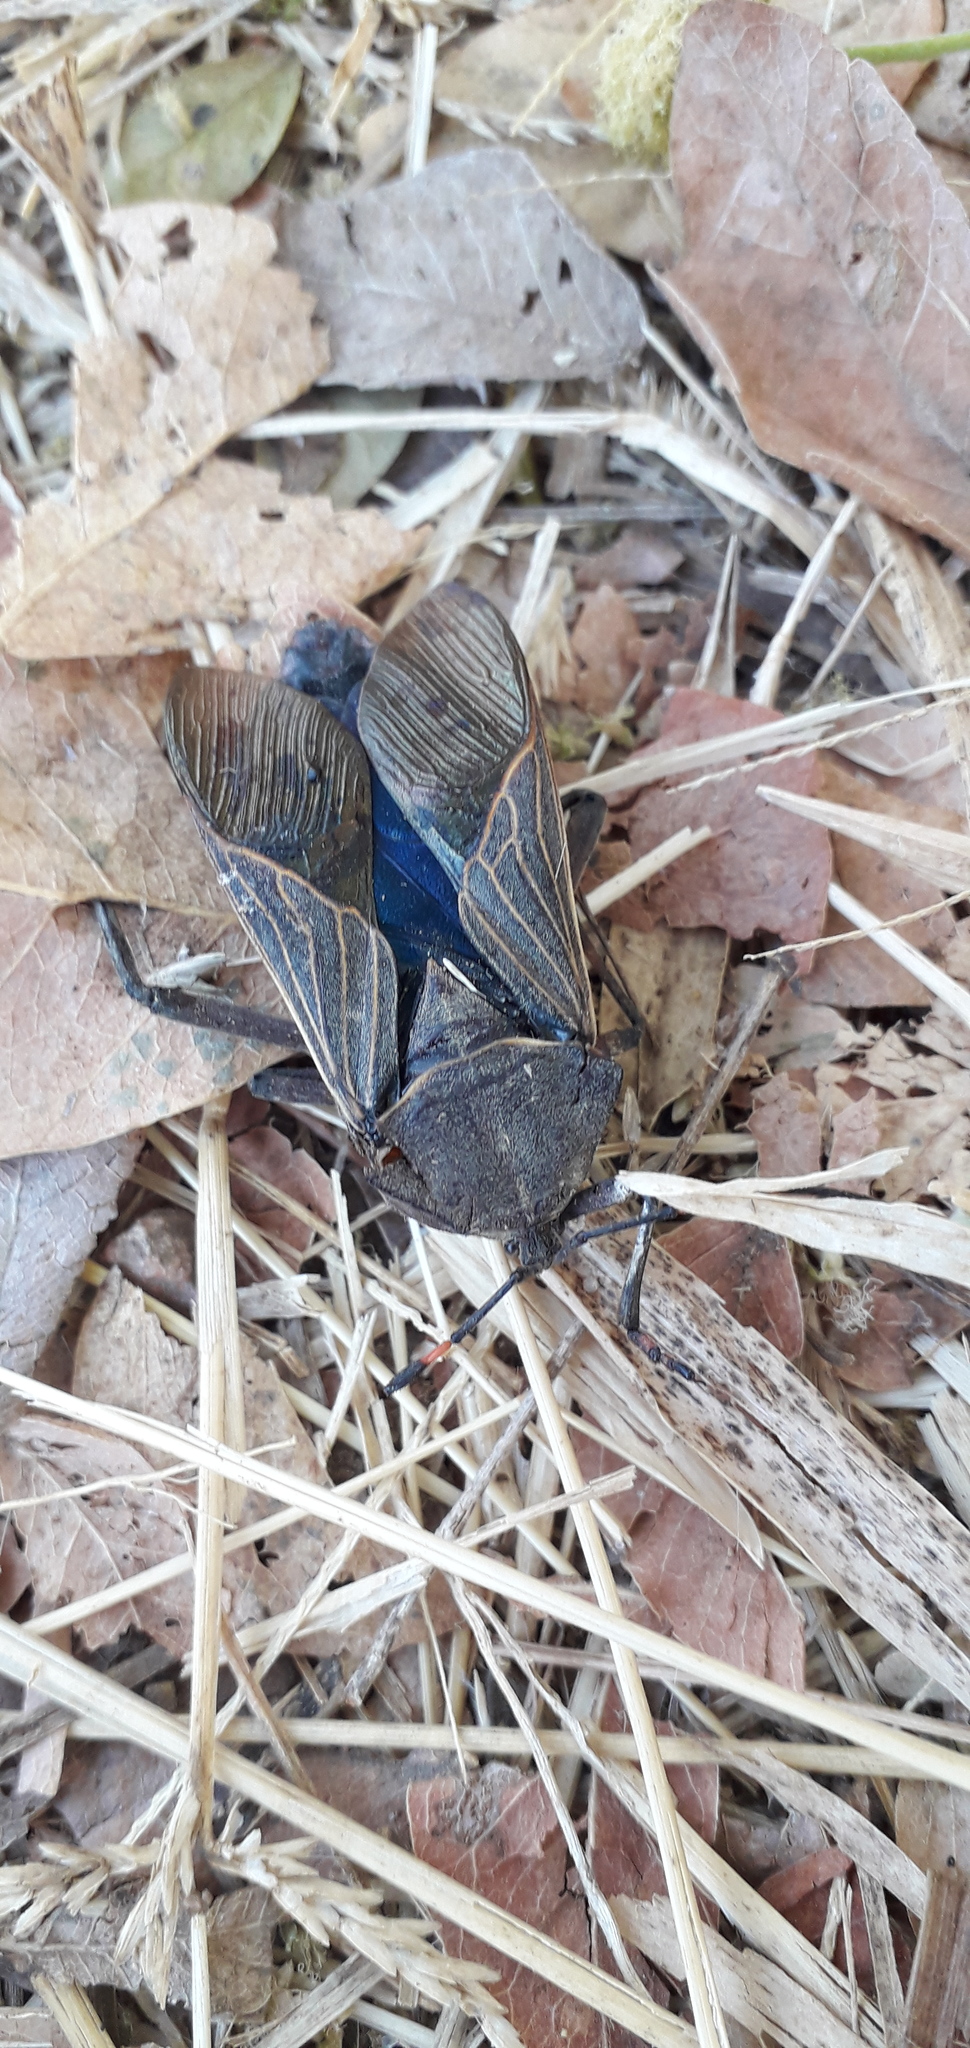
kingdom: Animalia
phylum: Arthropoda
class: Insecta
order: Hemiptera
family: Coreidae
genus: Pachylis
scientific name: Pachylis nervosus
